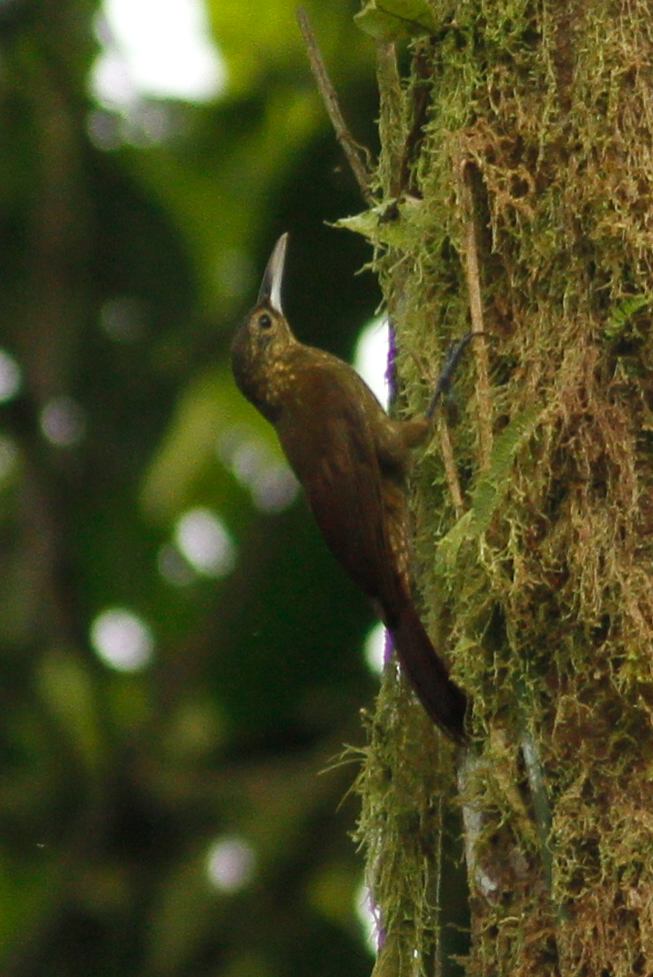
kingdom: Animalia
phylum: Chordata
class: Aves
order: Passeriformes
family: Furnariidae
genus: Xiphorhynchus
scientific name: Xiphorhynchus erythropygius
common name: Spotted woodcreeper
